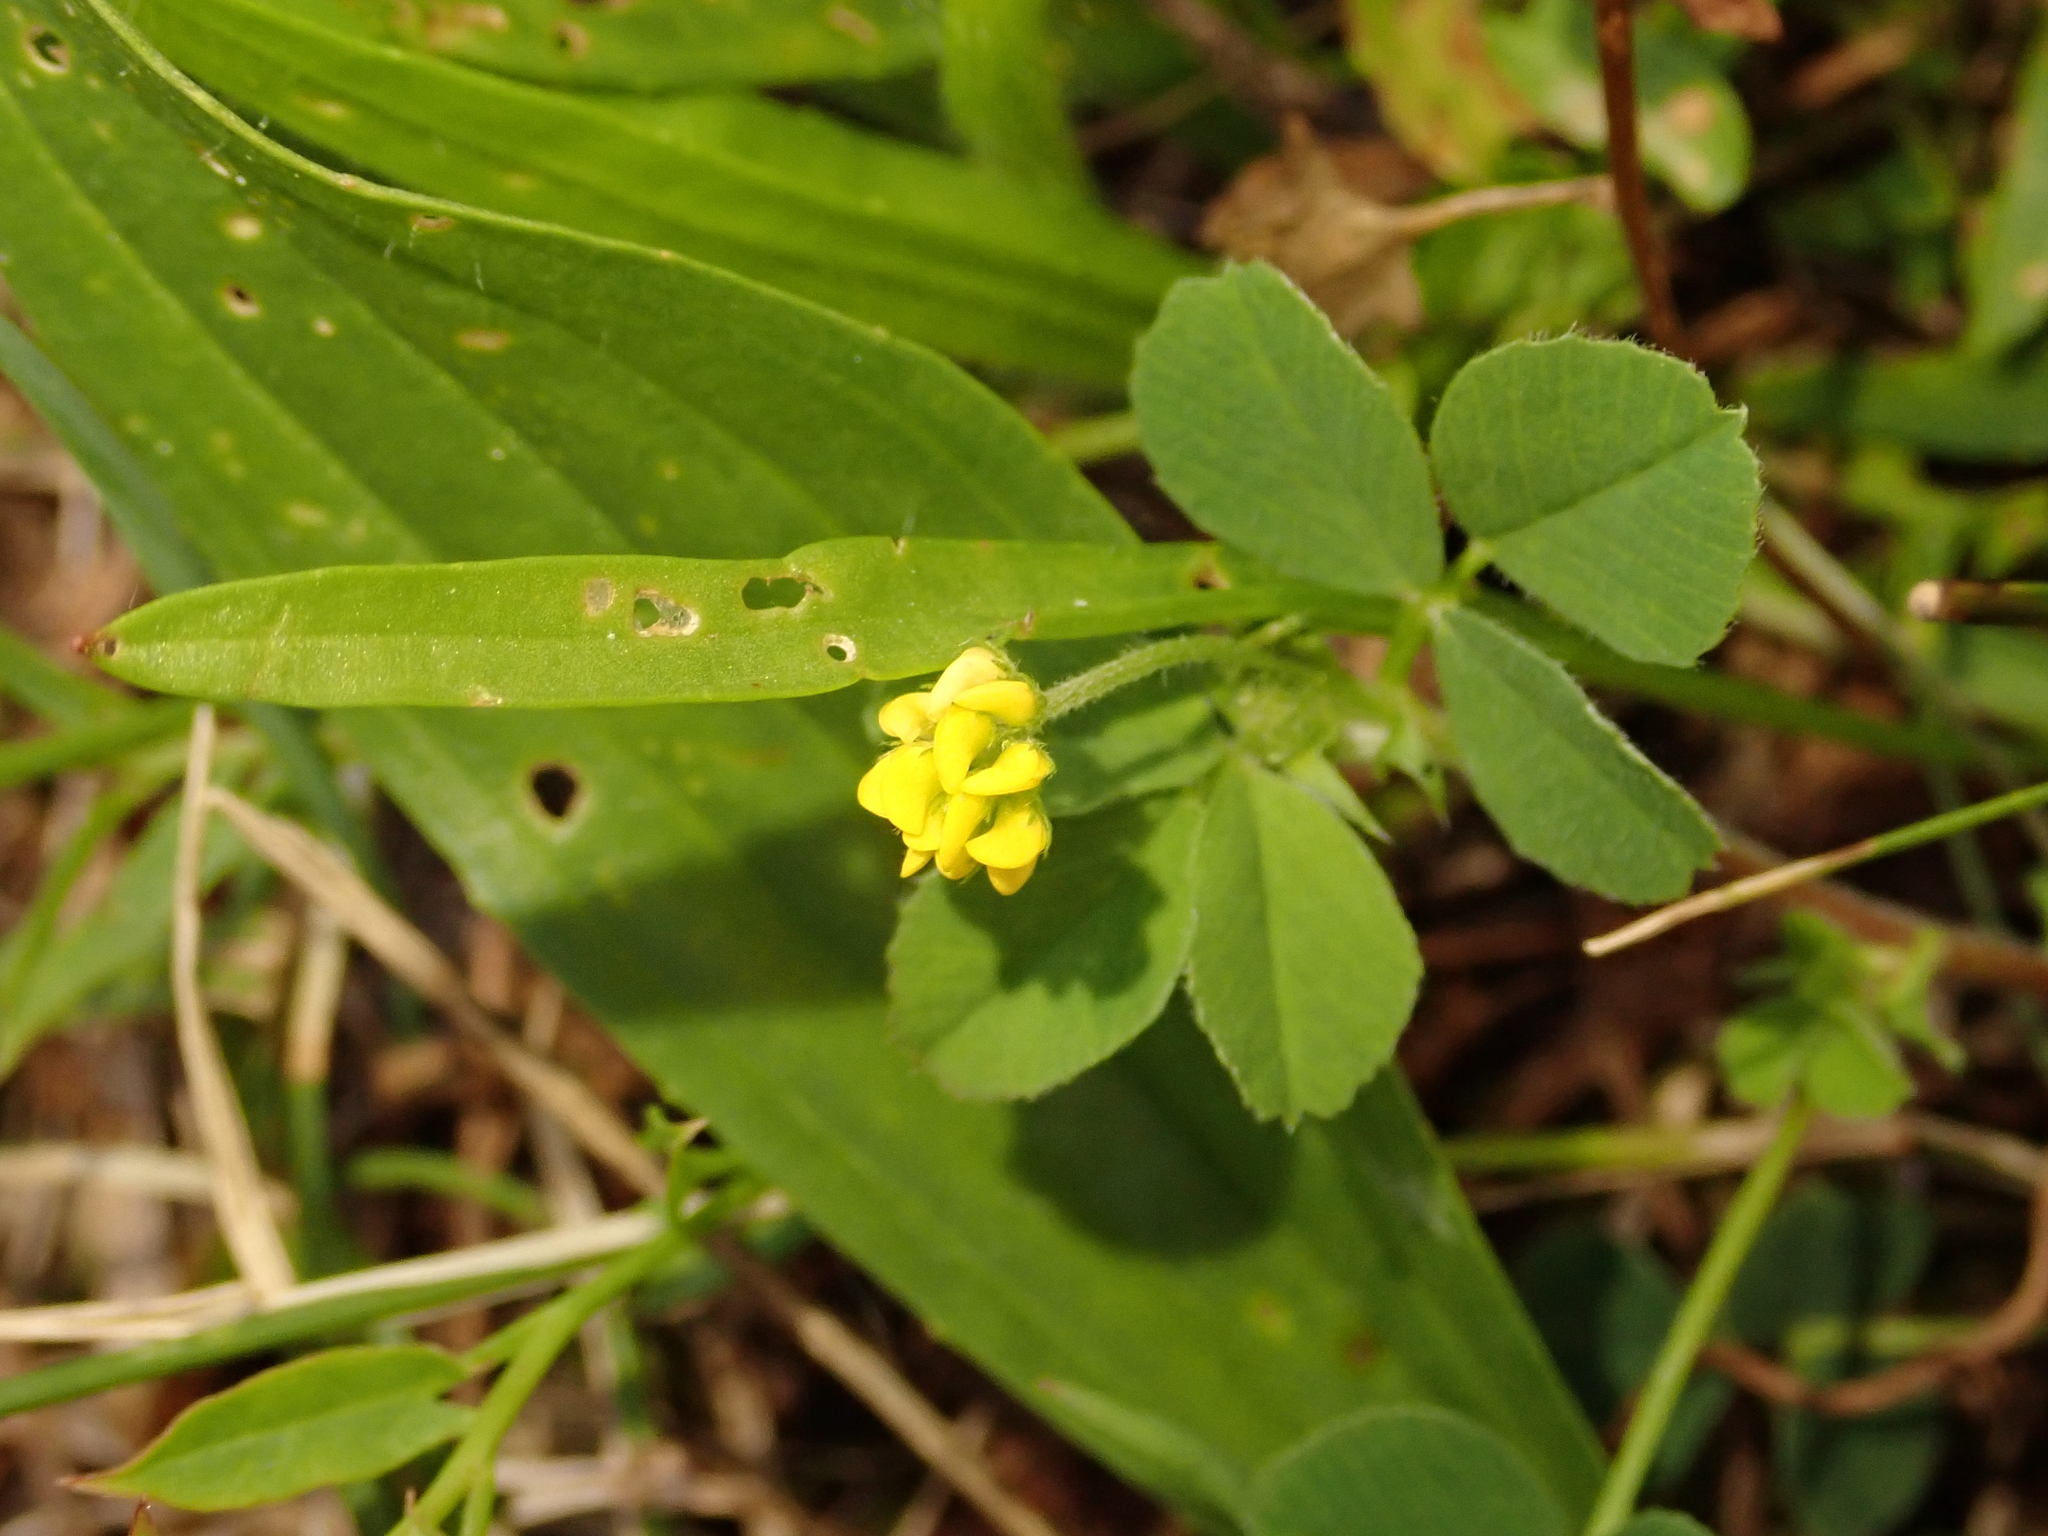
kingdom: Plantae
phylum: Tracheophyta
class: Magnoliopsida
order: Fabales
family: Fabaceae
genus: Medicago
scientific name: Medicago lupulina
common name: Black medick
